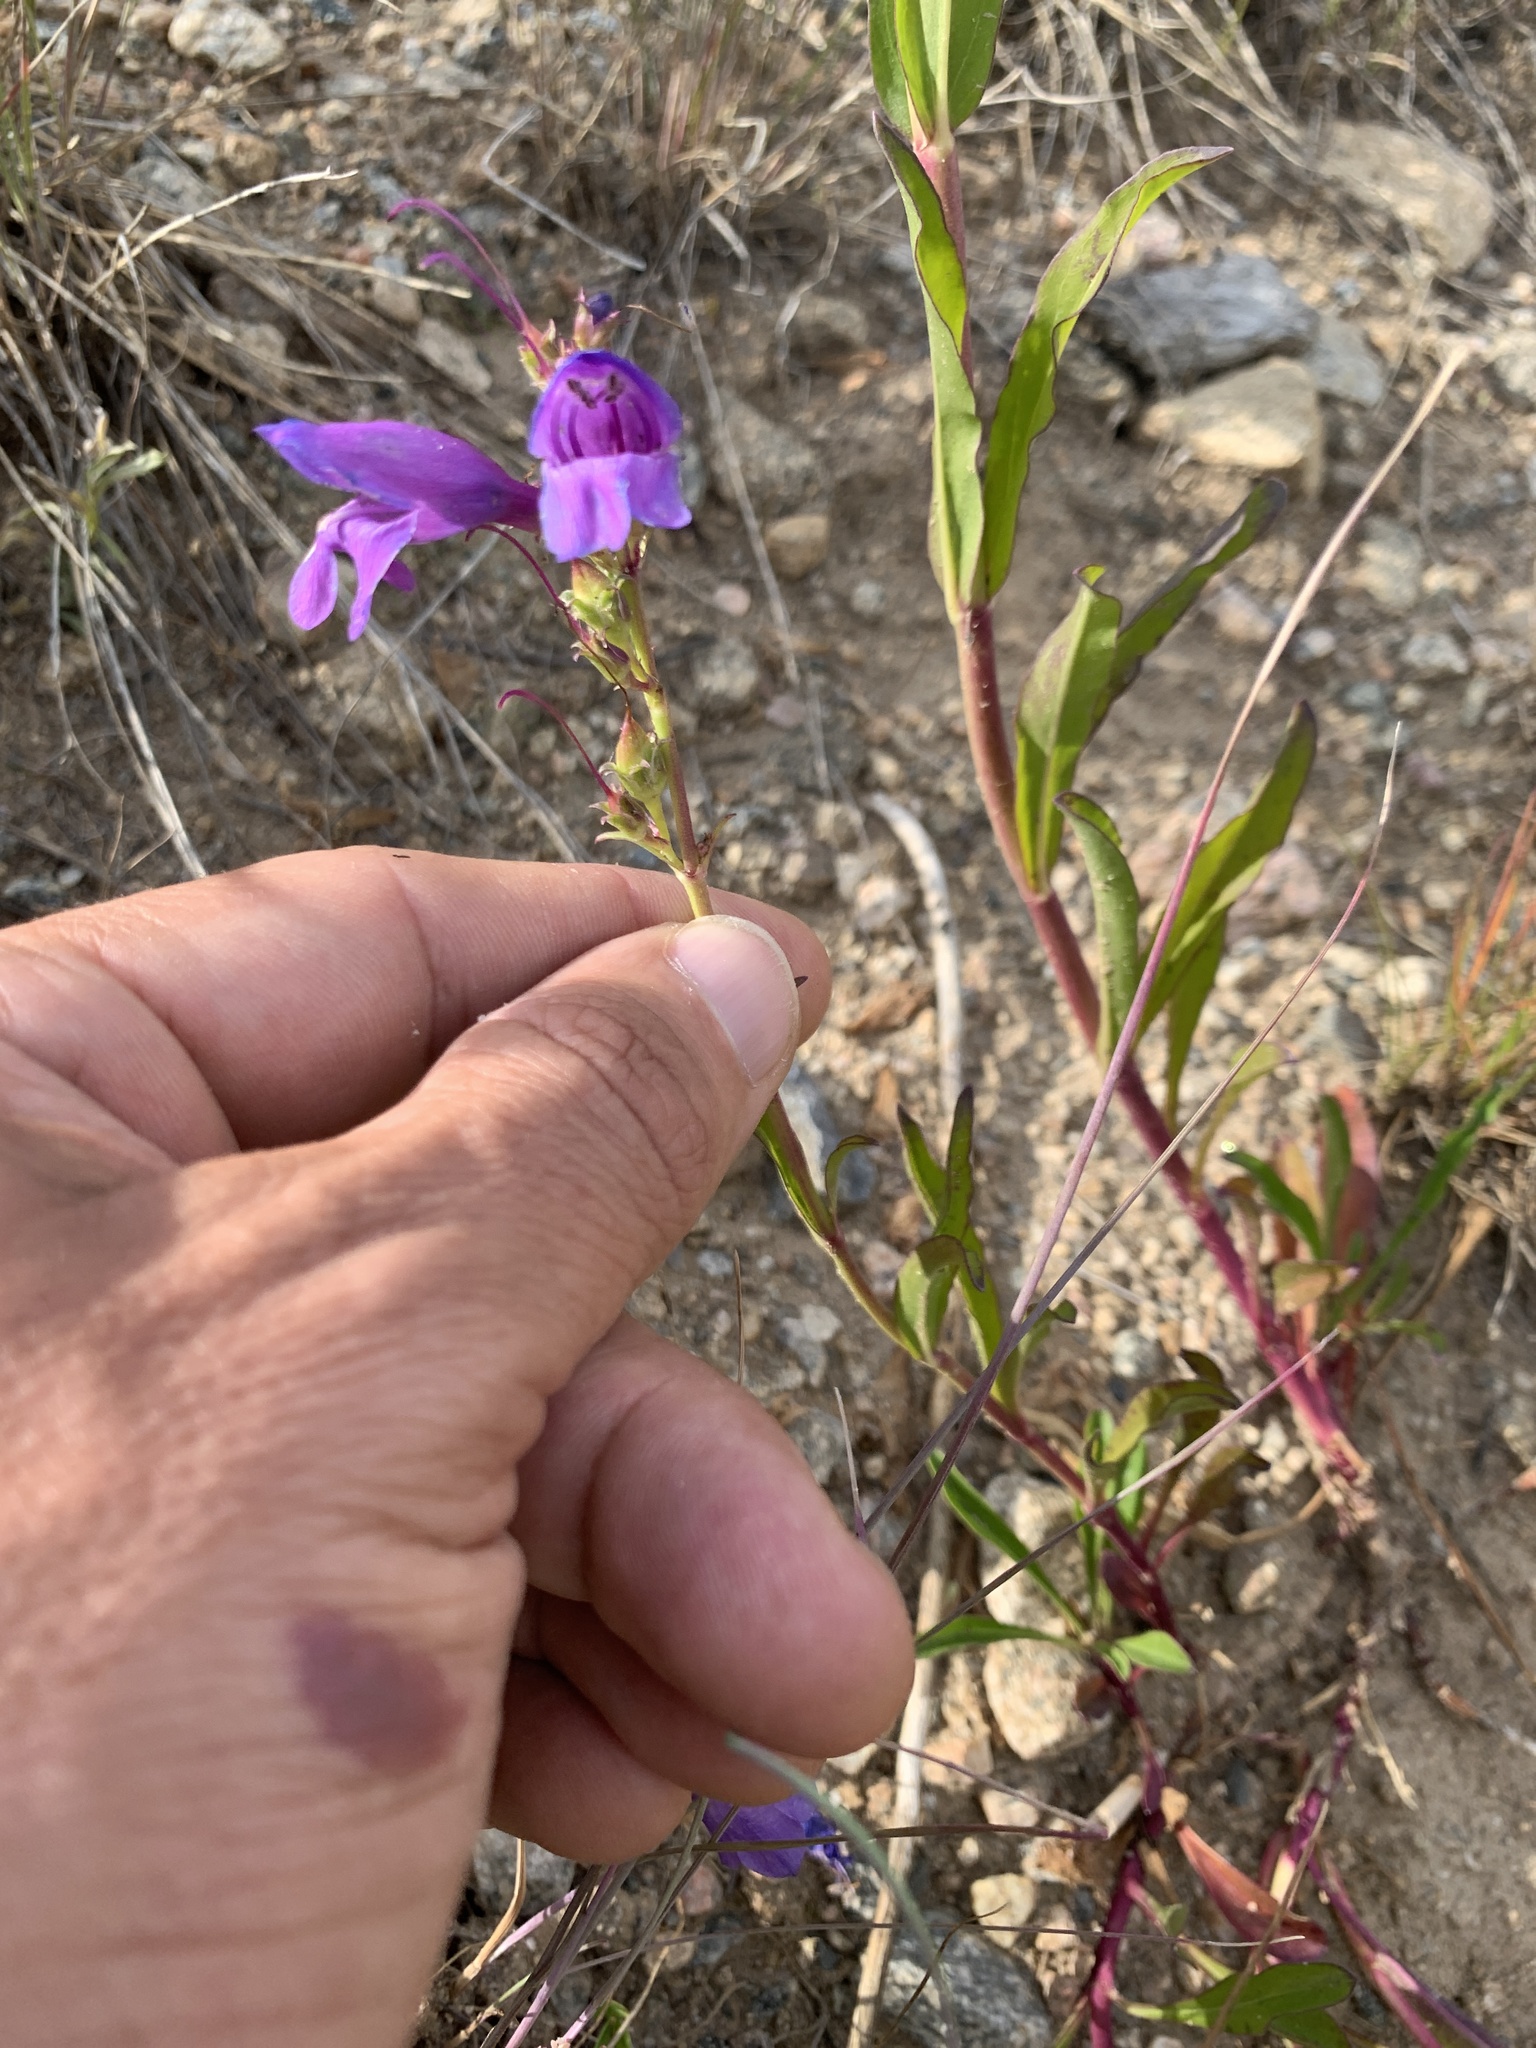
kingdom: Plantae
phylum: Tracheophyta
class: Magnoliopsida
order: Lamiales
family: Plantaginaceae
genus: Penstemon
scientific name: Penstemon strictus
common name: Rocky mountain penstemon
